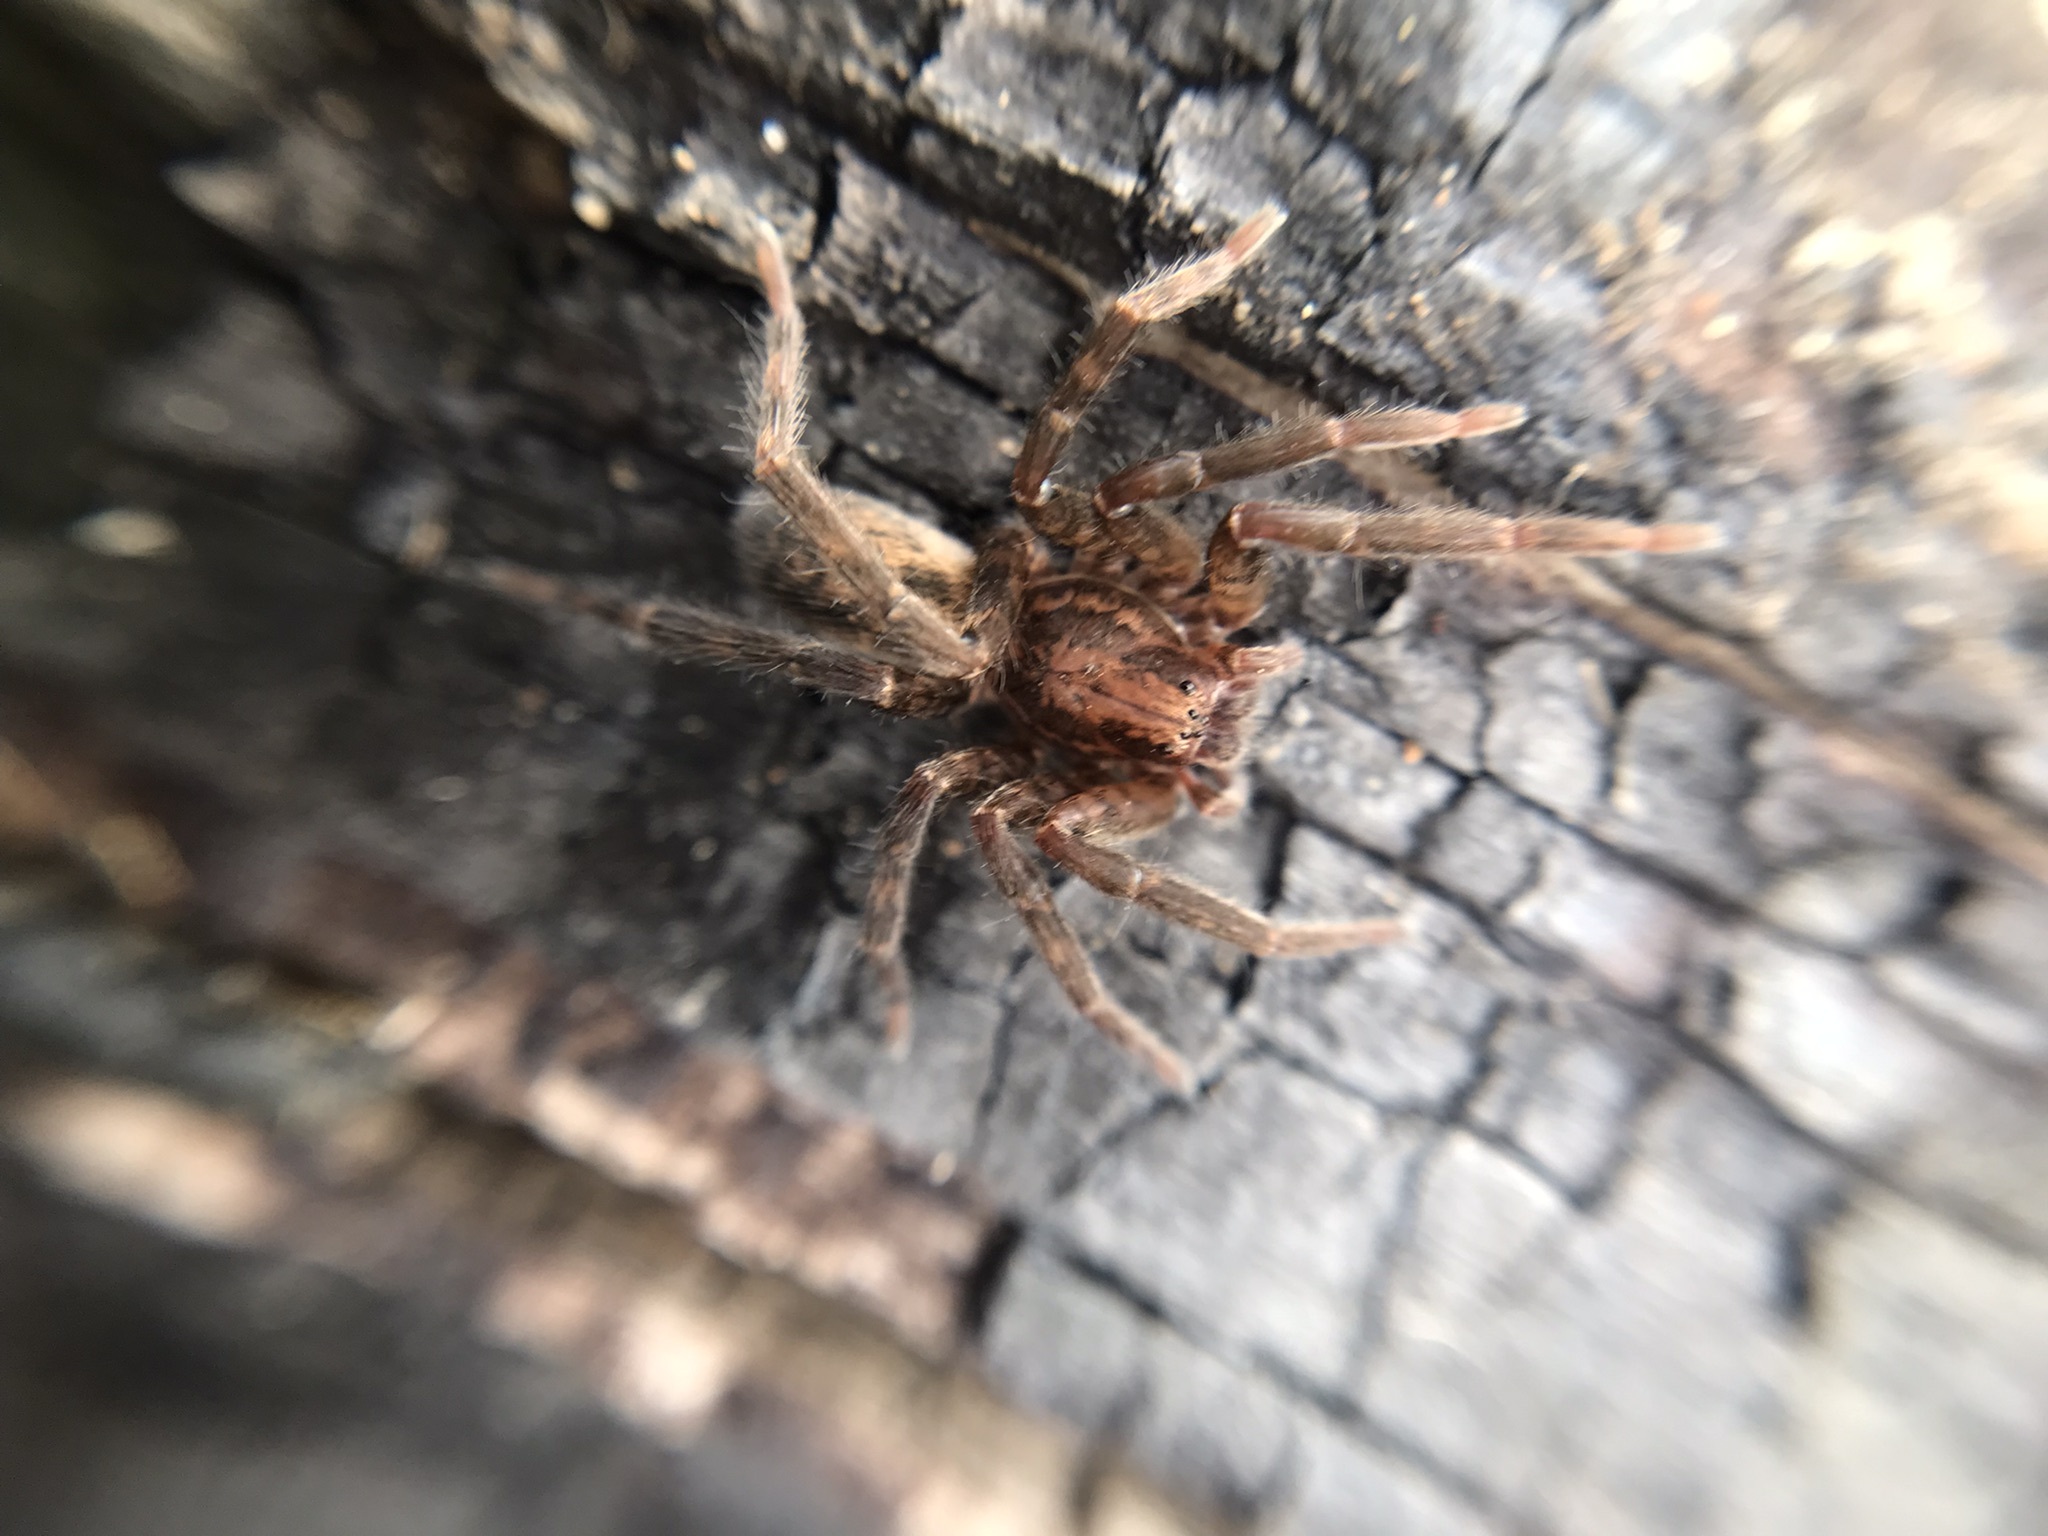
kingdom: Animalia
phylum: Arthropoda
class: Arachnida
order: Araneae
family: Ctenidae
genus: Asthenoctenus
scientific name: Asthenoctenus borellii
